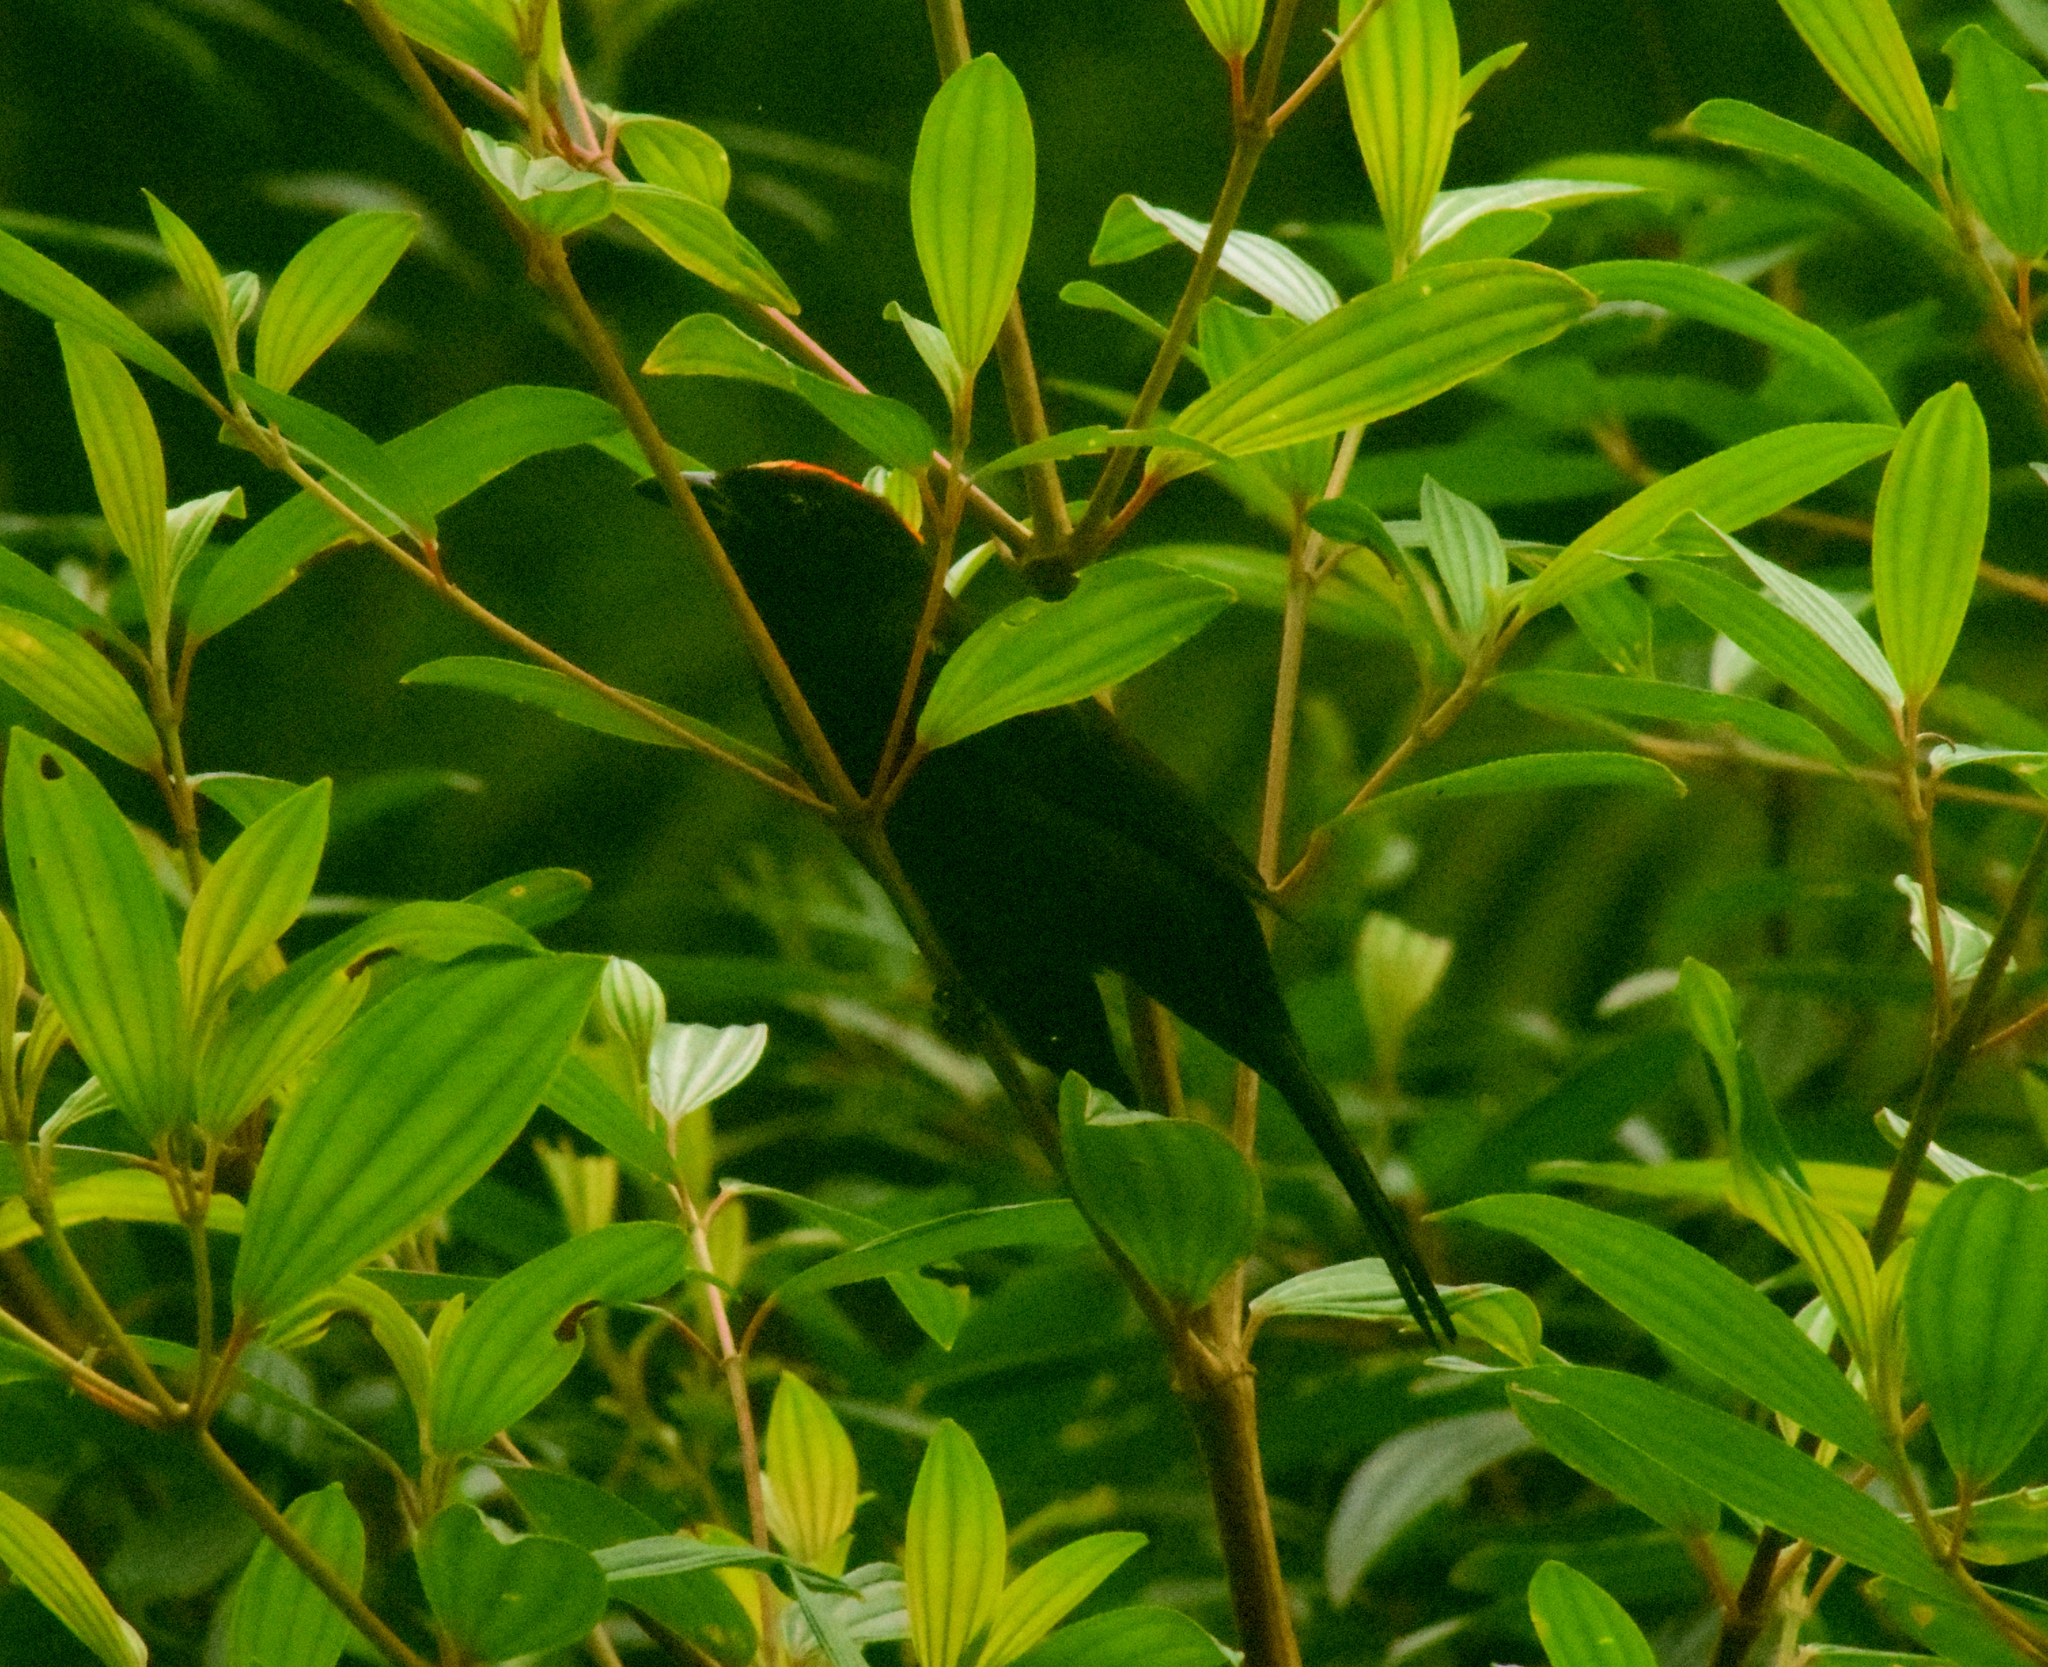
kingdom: Animalia
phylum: Chordata
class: Aves
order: Passeriformes
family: Thraupidae
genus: Loriotus
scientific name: Loriotus cristatus
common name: Flame-crested tanager
